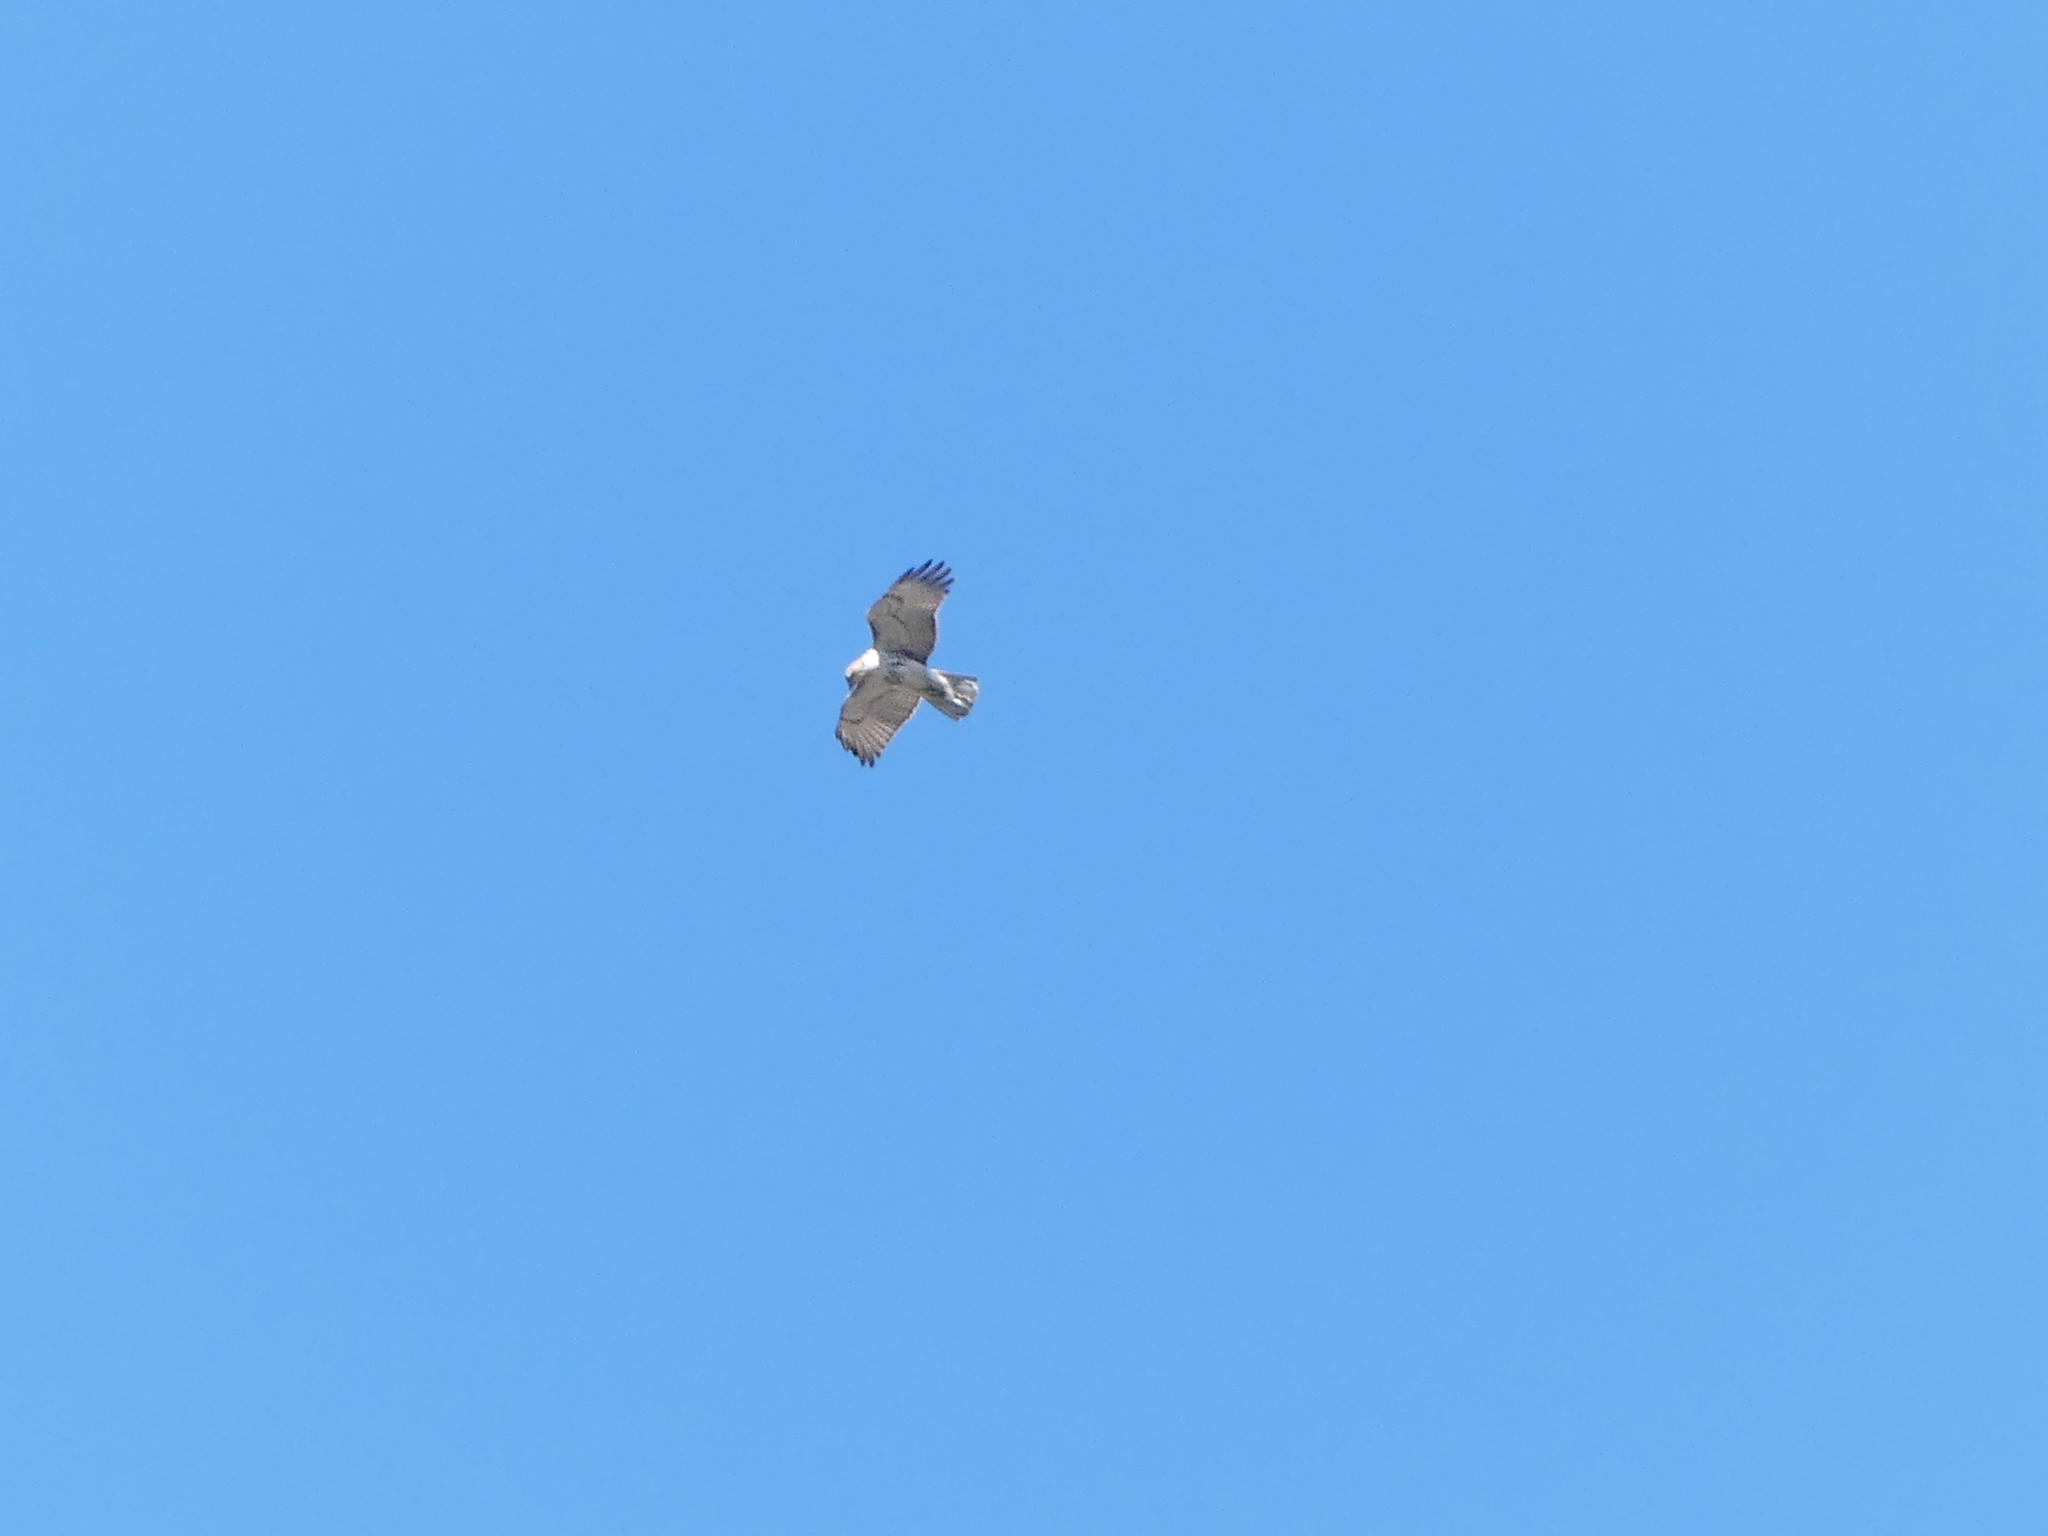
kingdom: Animalia
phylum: Chordata
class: Aves
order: Accipitriformes
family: Accipitridae
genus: Buteo
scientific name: Buteo jamaicensis
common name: Red-tailed hawk
